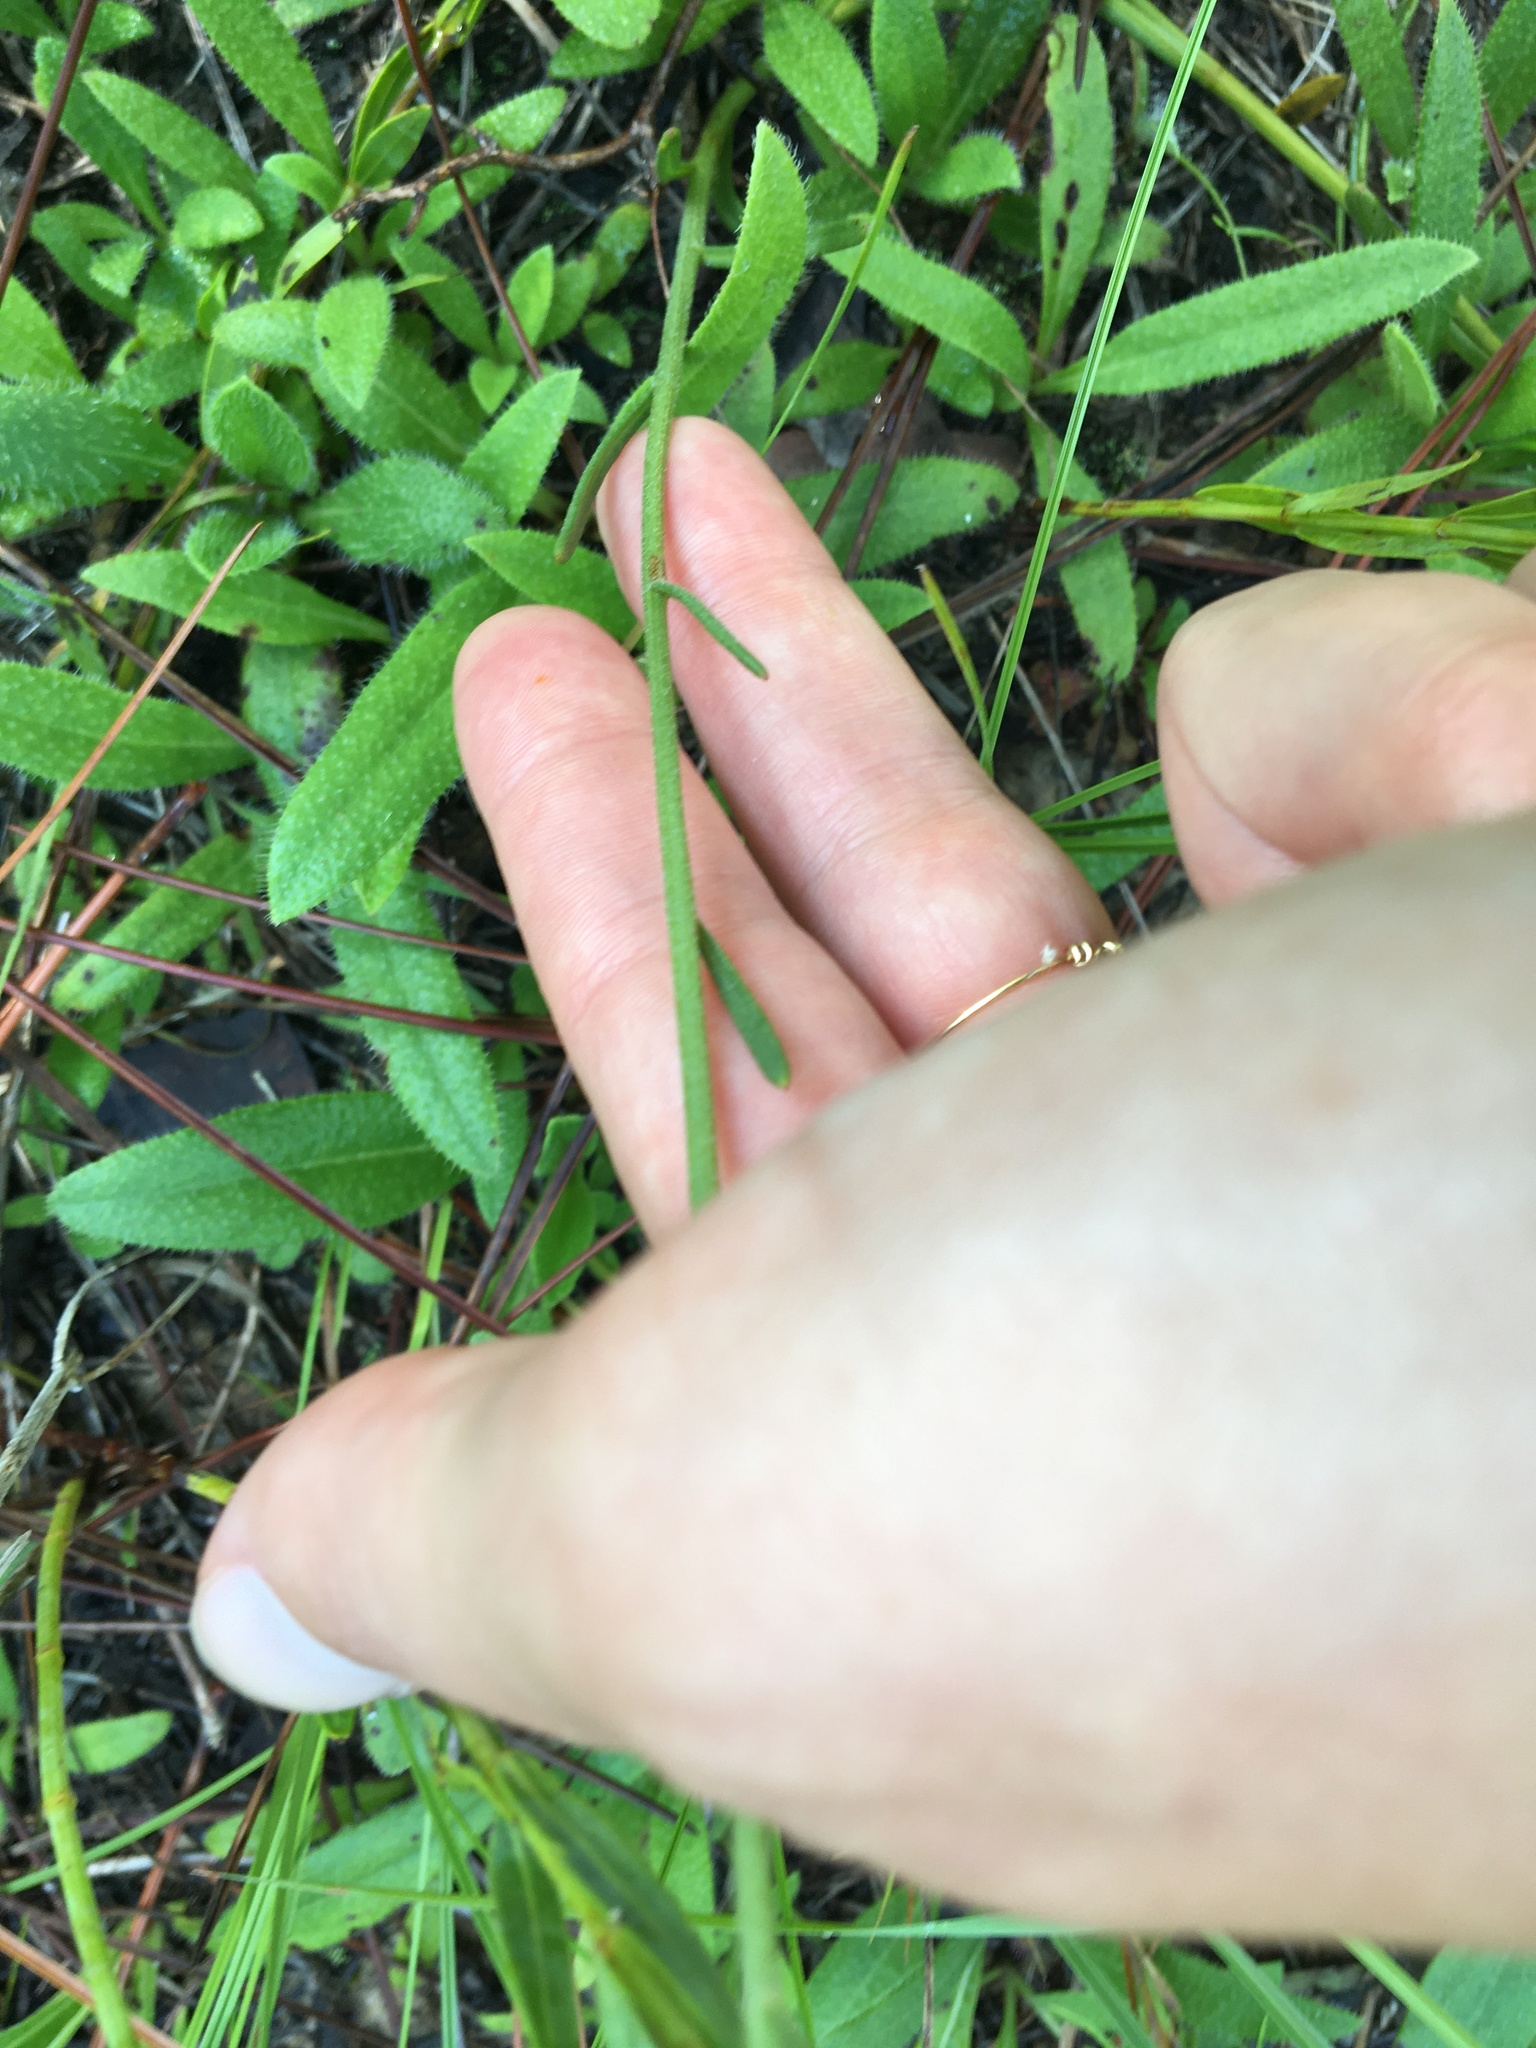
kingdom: Plantae
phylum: Tracheophyta
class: Magnoliopsida
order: Asterales
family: Asteraceae
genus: Balduina
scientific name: Balduina uniflora
